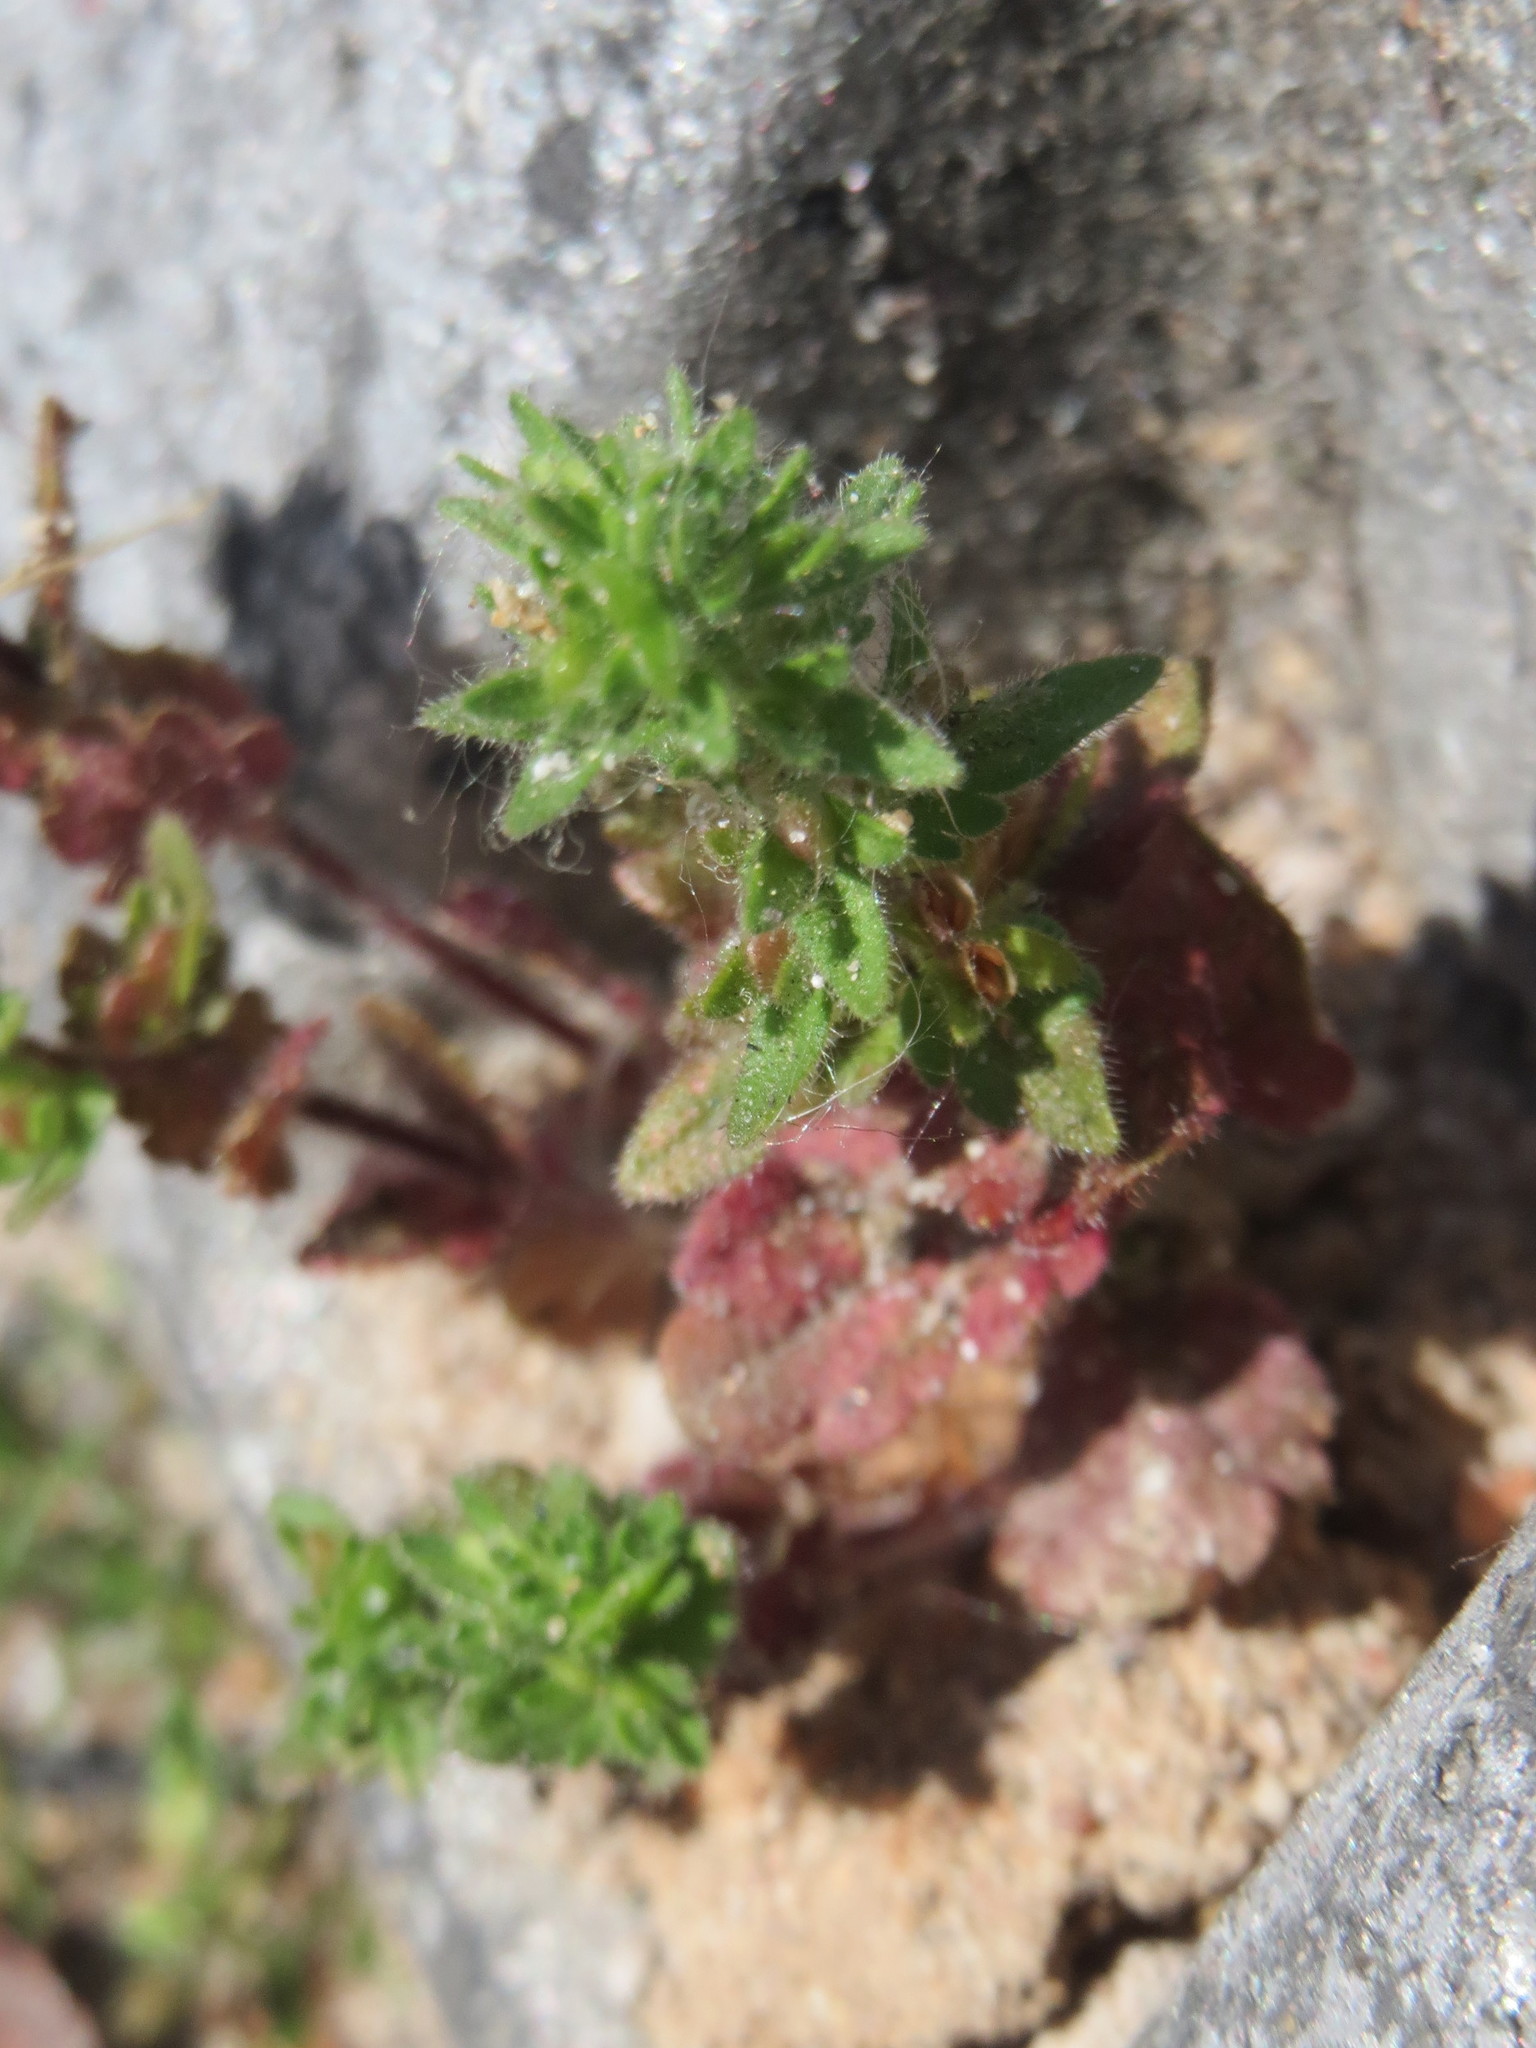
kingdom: Plantae
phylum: Tracheophyta
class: Magnoliopsida
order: Lamiales
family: Plantaginaceae
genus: Veronica
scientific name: Veronica arvensis
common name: Corn speedwell
